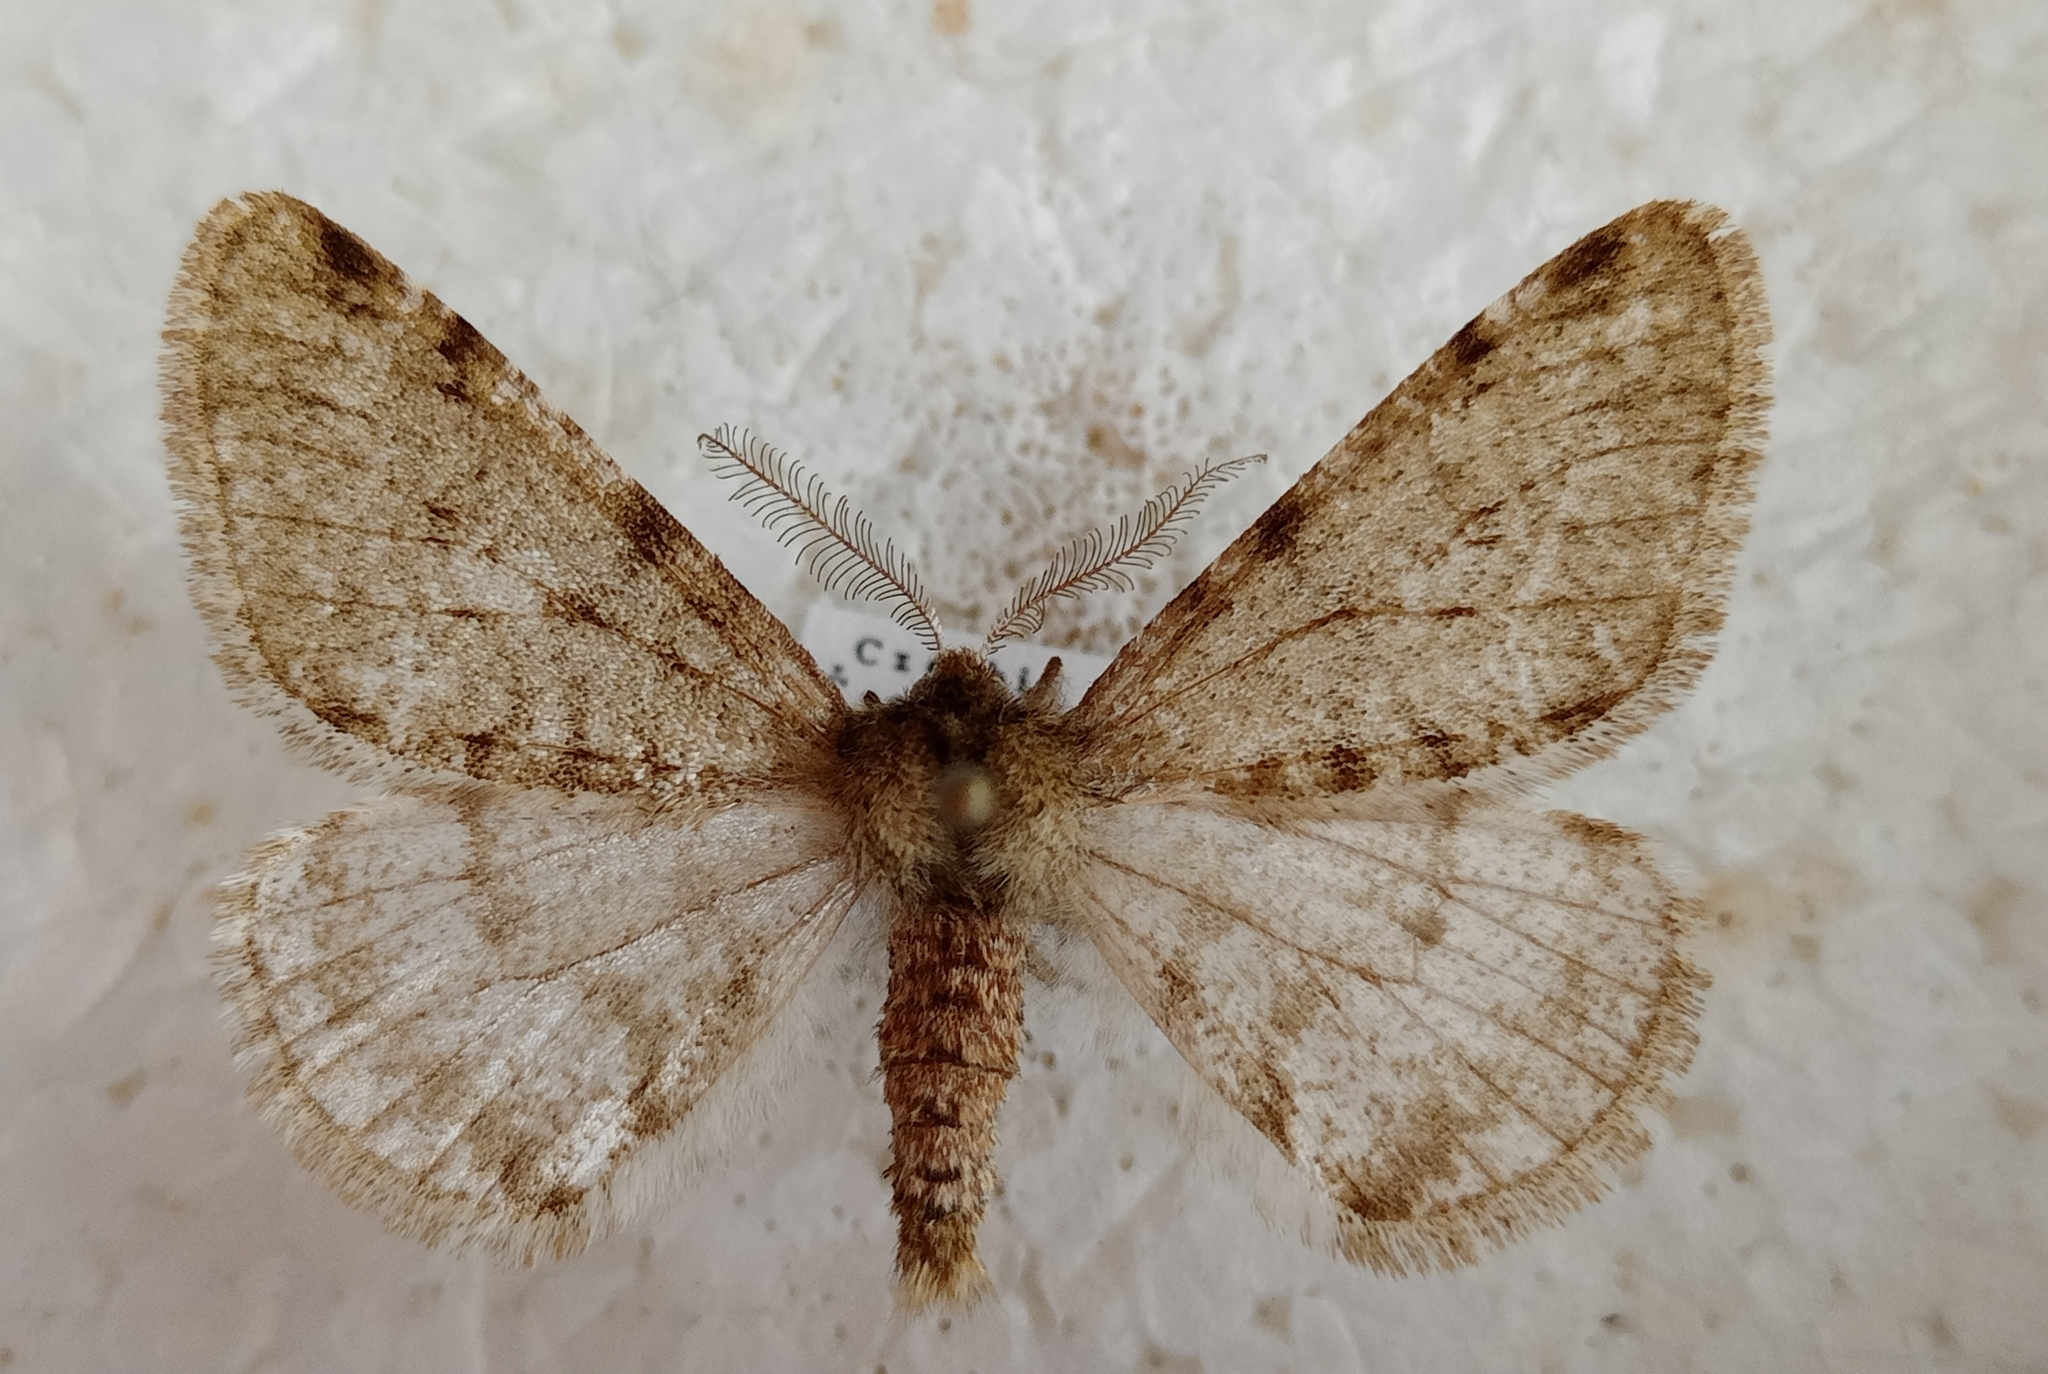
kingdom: Animalia
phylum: Arthropoda
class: Insecta
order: Lepidoptera
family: Geometridae
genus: Phigalia
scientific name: Phigalia pilosaria
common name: Pale brindled beauty
